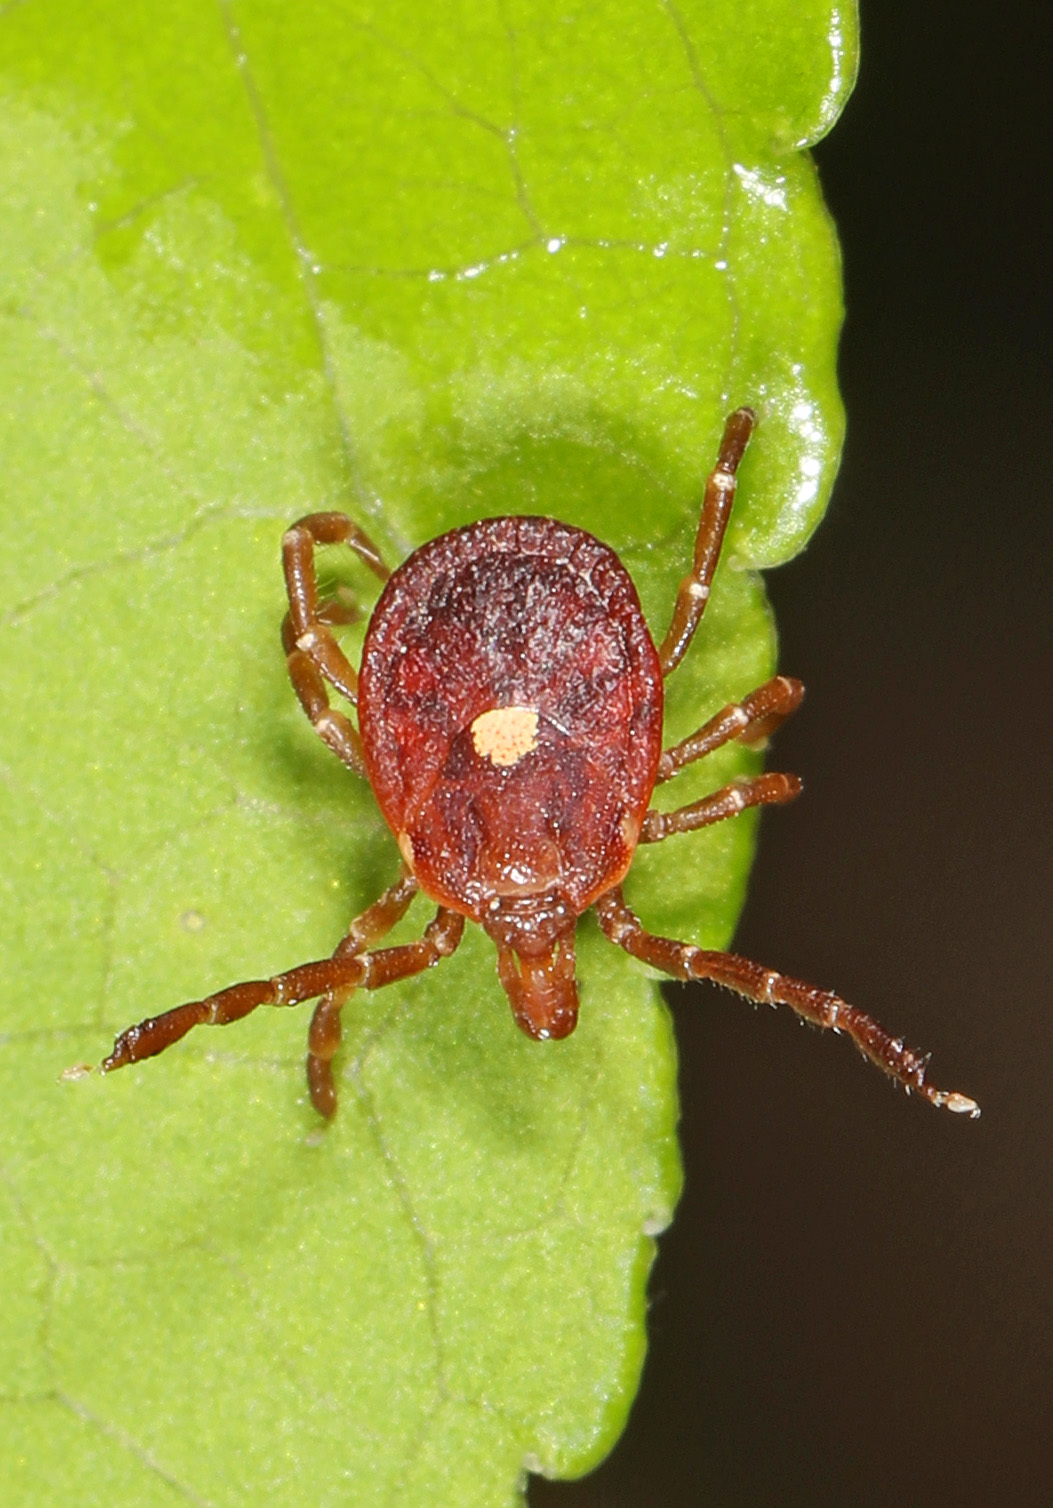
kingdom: Animalia
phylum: Arthropoda
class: Arachnida
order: Ixodida
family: Ixodidae
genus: Amblyomma
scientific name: Amblyomma americanum
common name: Lone star tick
